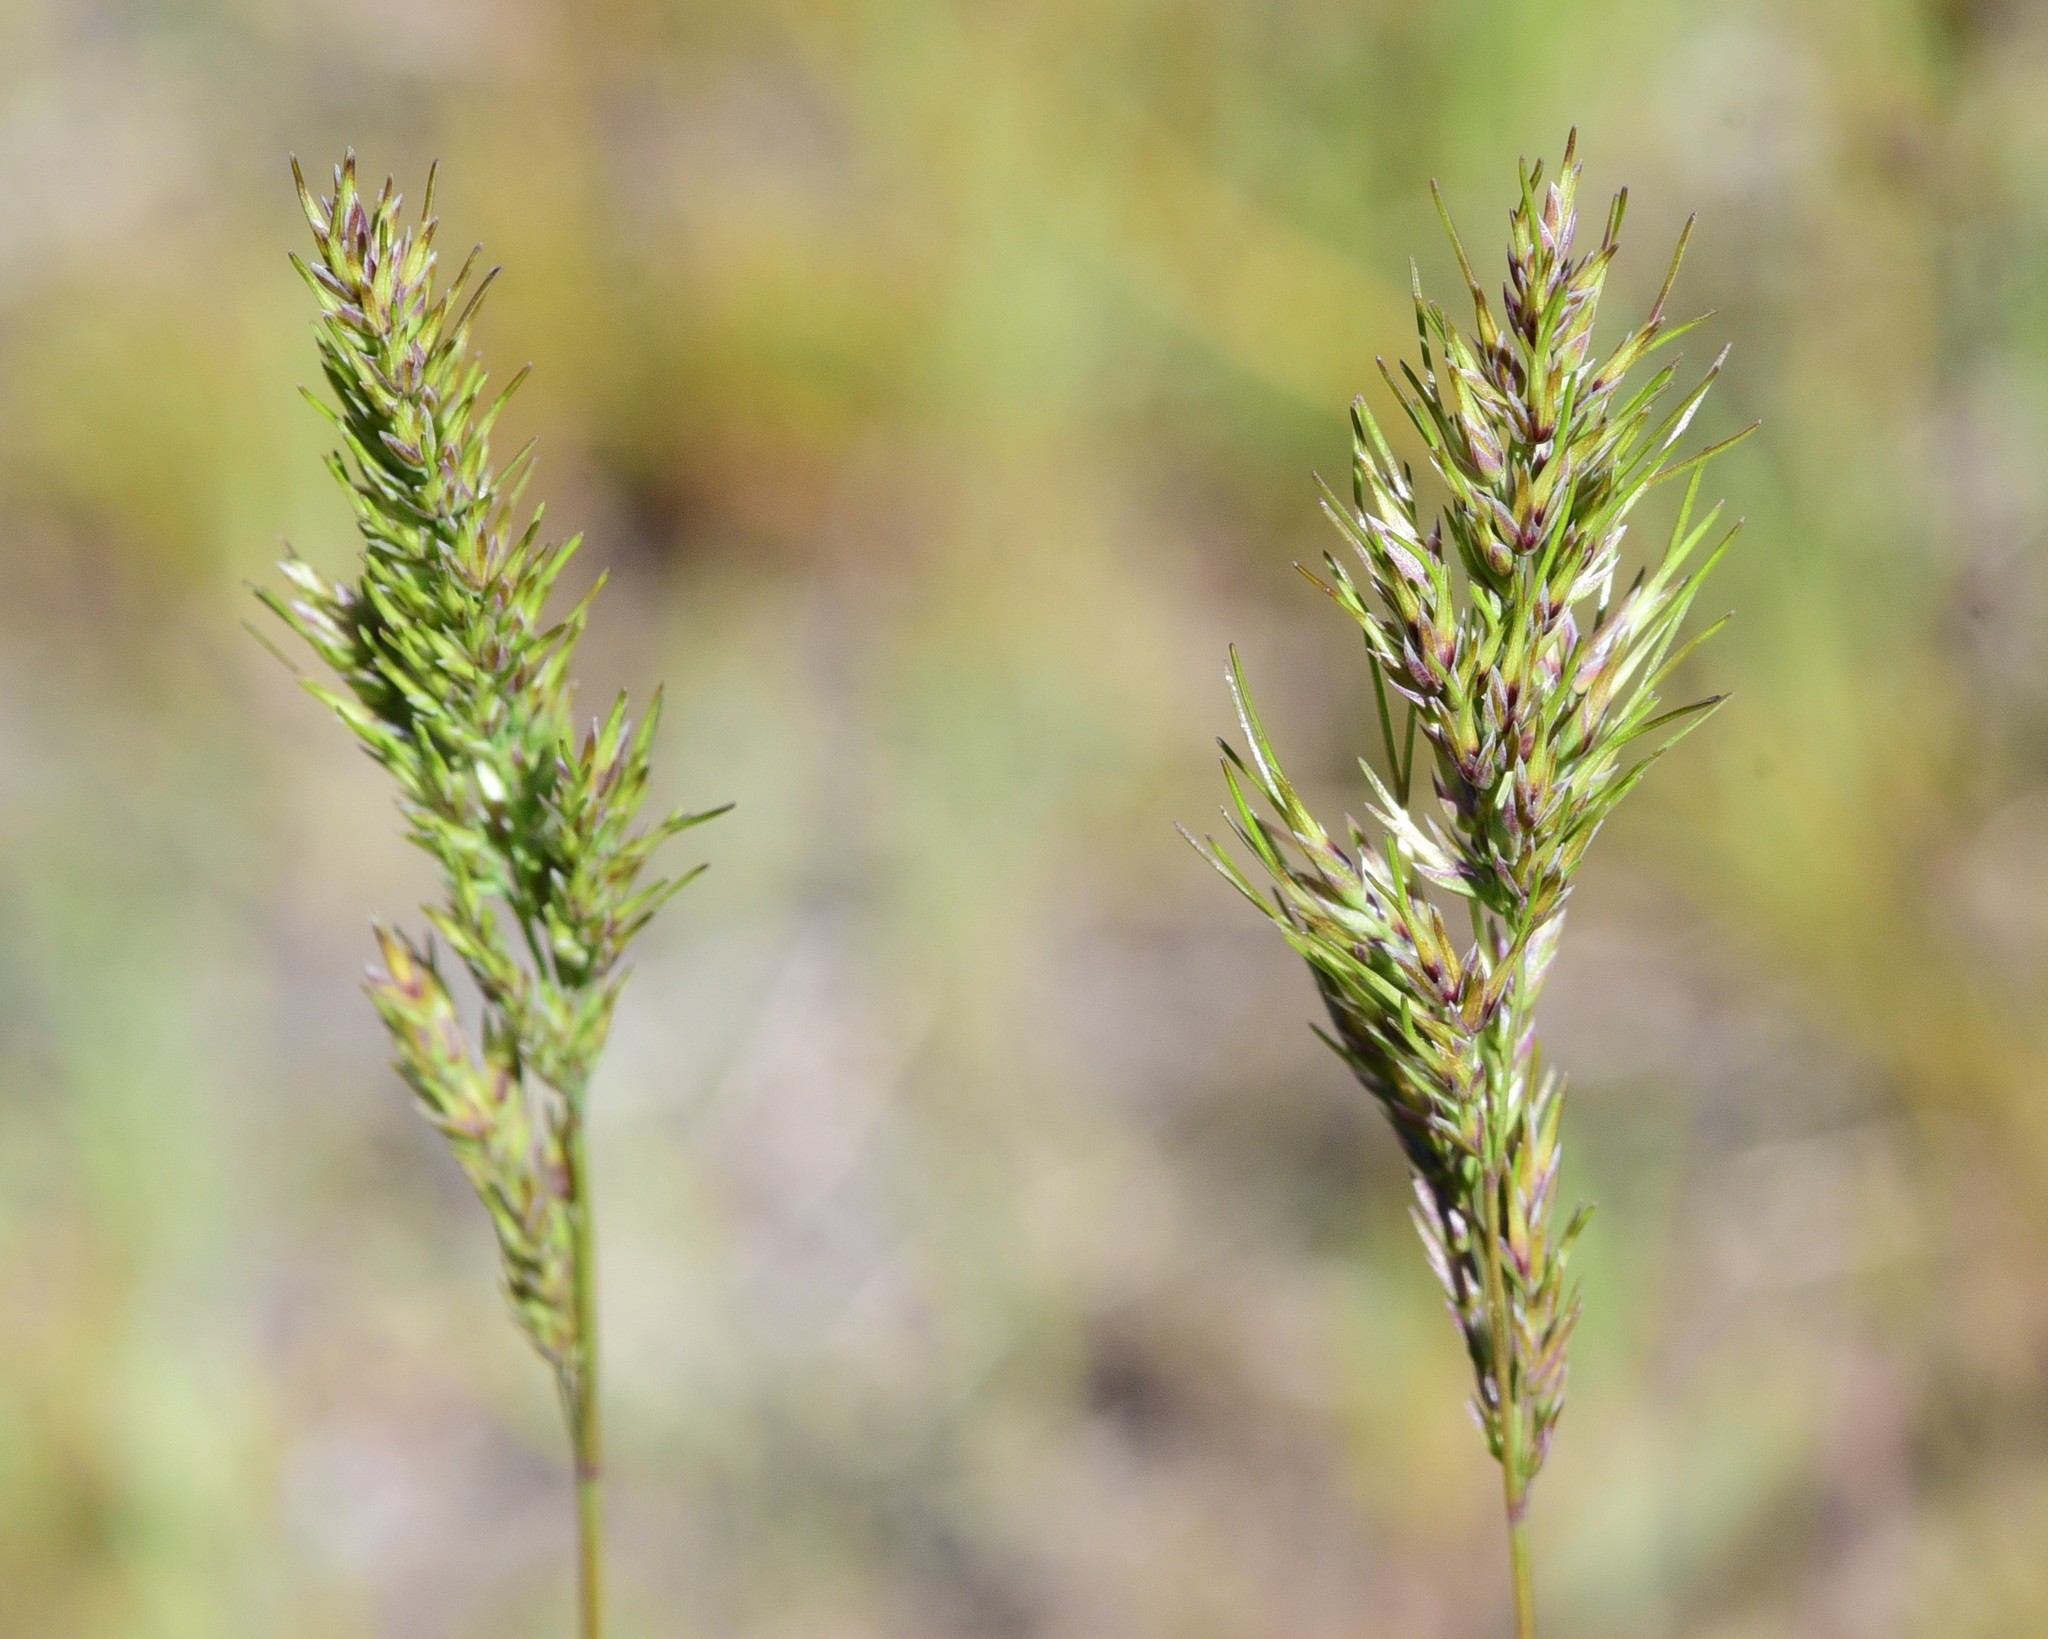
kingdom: Plantae
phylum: Tracheophyta
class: Liliopsida
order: Poales
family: Poaceae
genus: Poa
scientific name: Poa bulbosa
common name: Bulbous bluegrass
